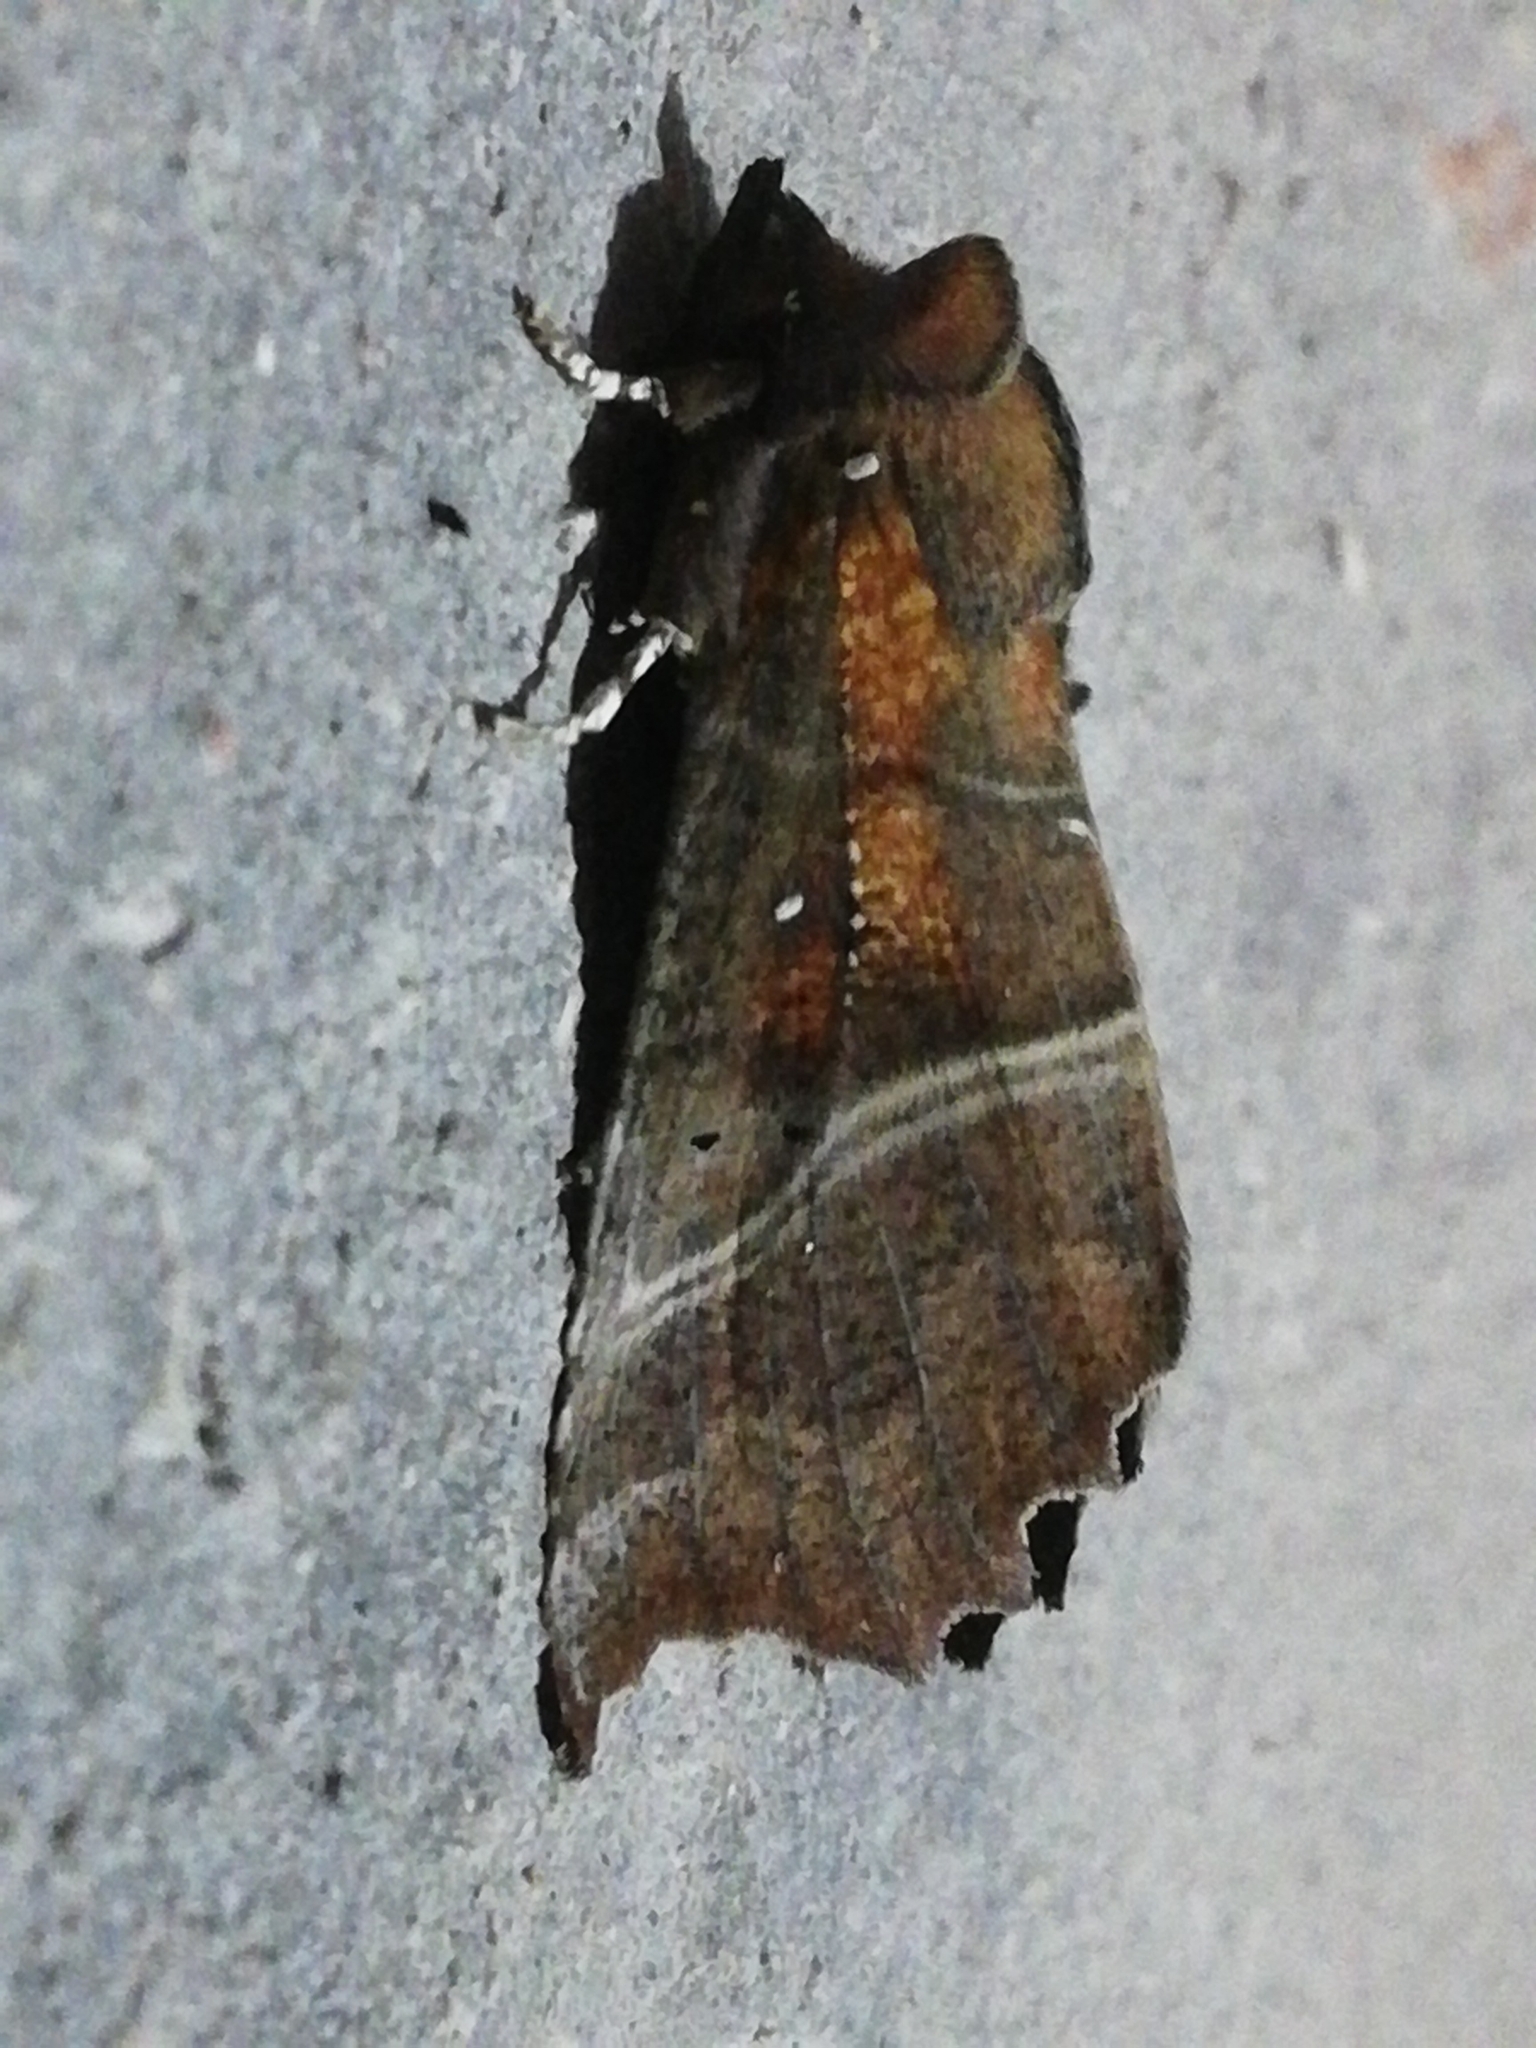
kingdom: Animalia
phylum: Arthropoda
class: Insecta
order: Lepidoptera
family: Erebidae
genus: Scoliopteryx
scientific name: Scoliopteryx libatrix
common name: Herald
